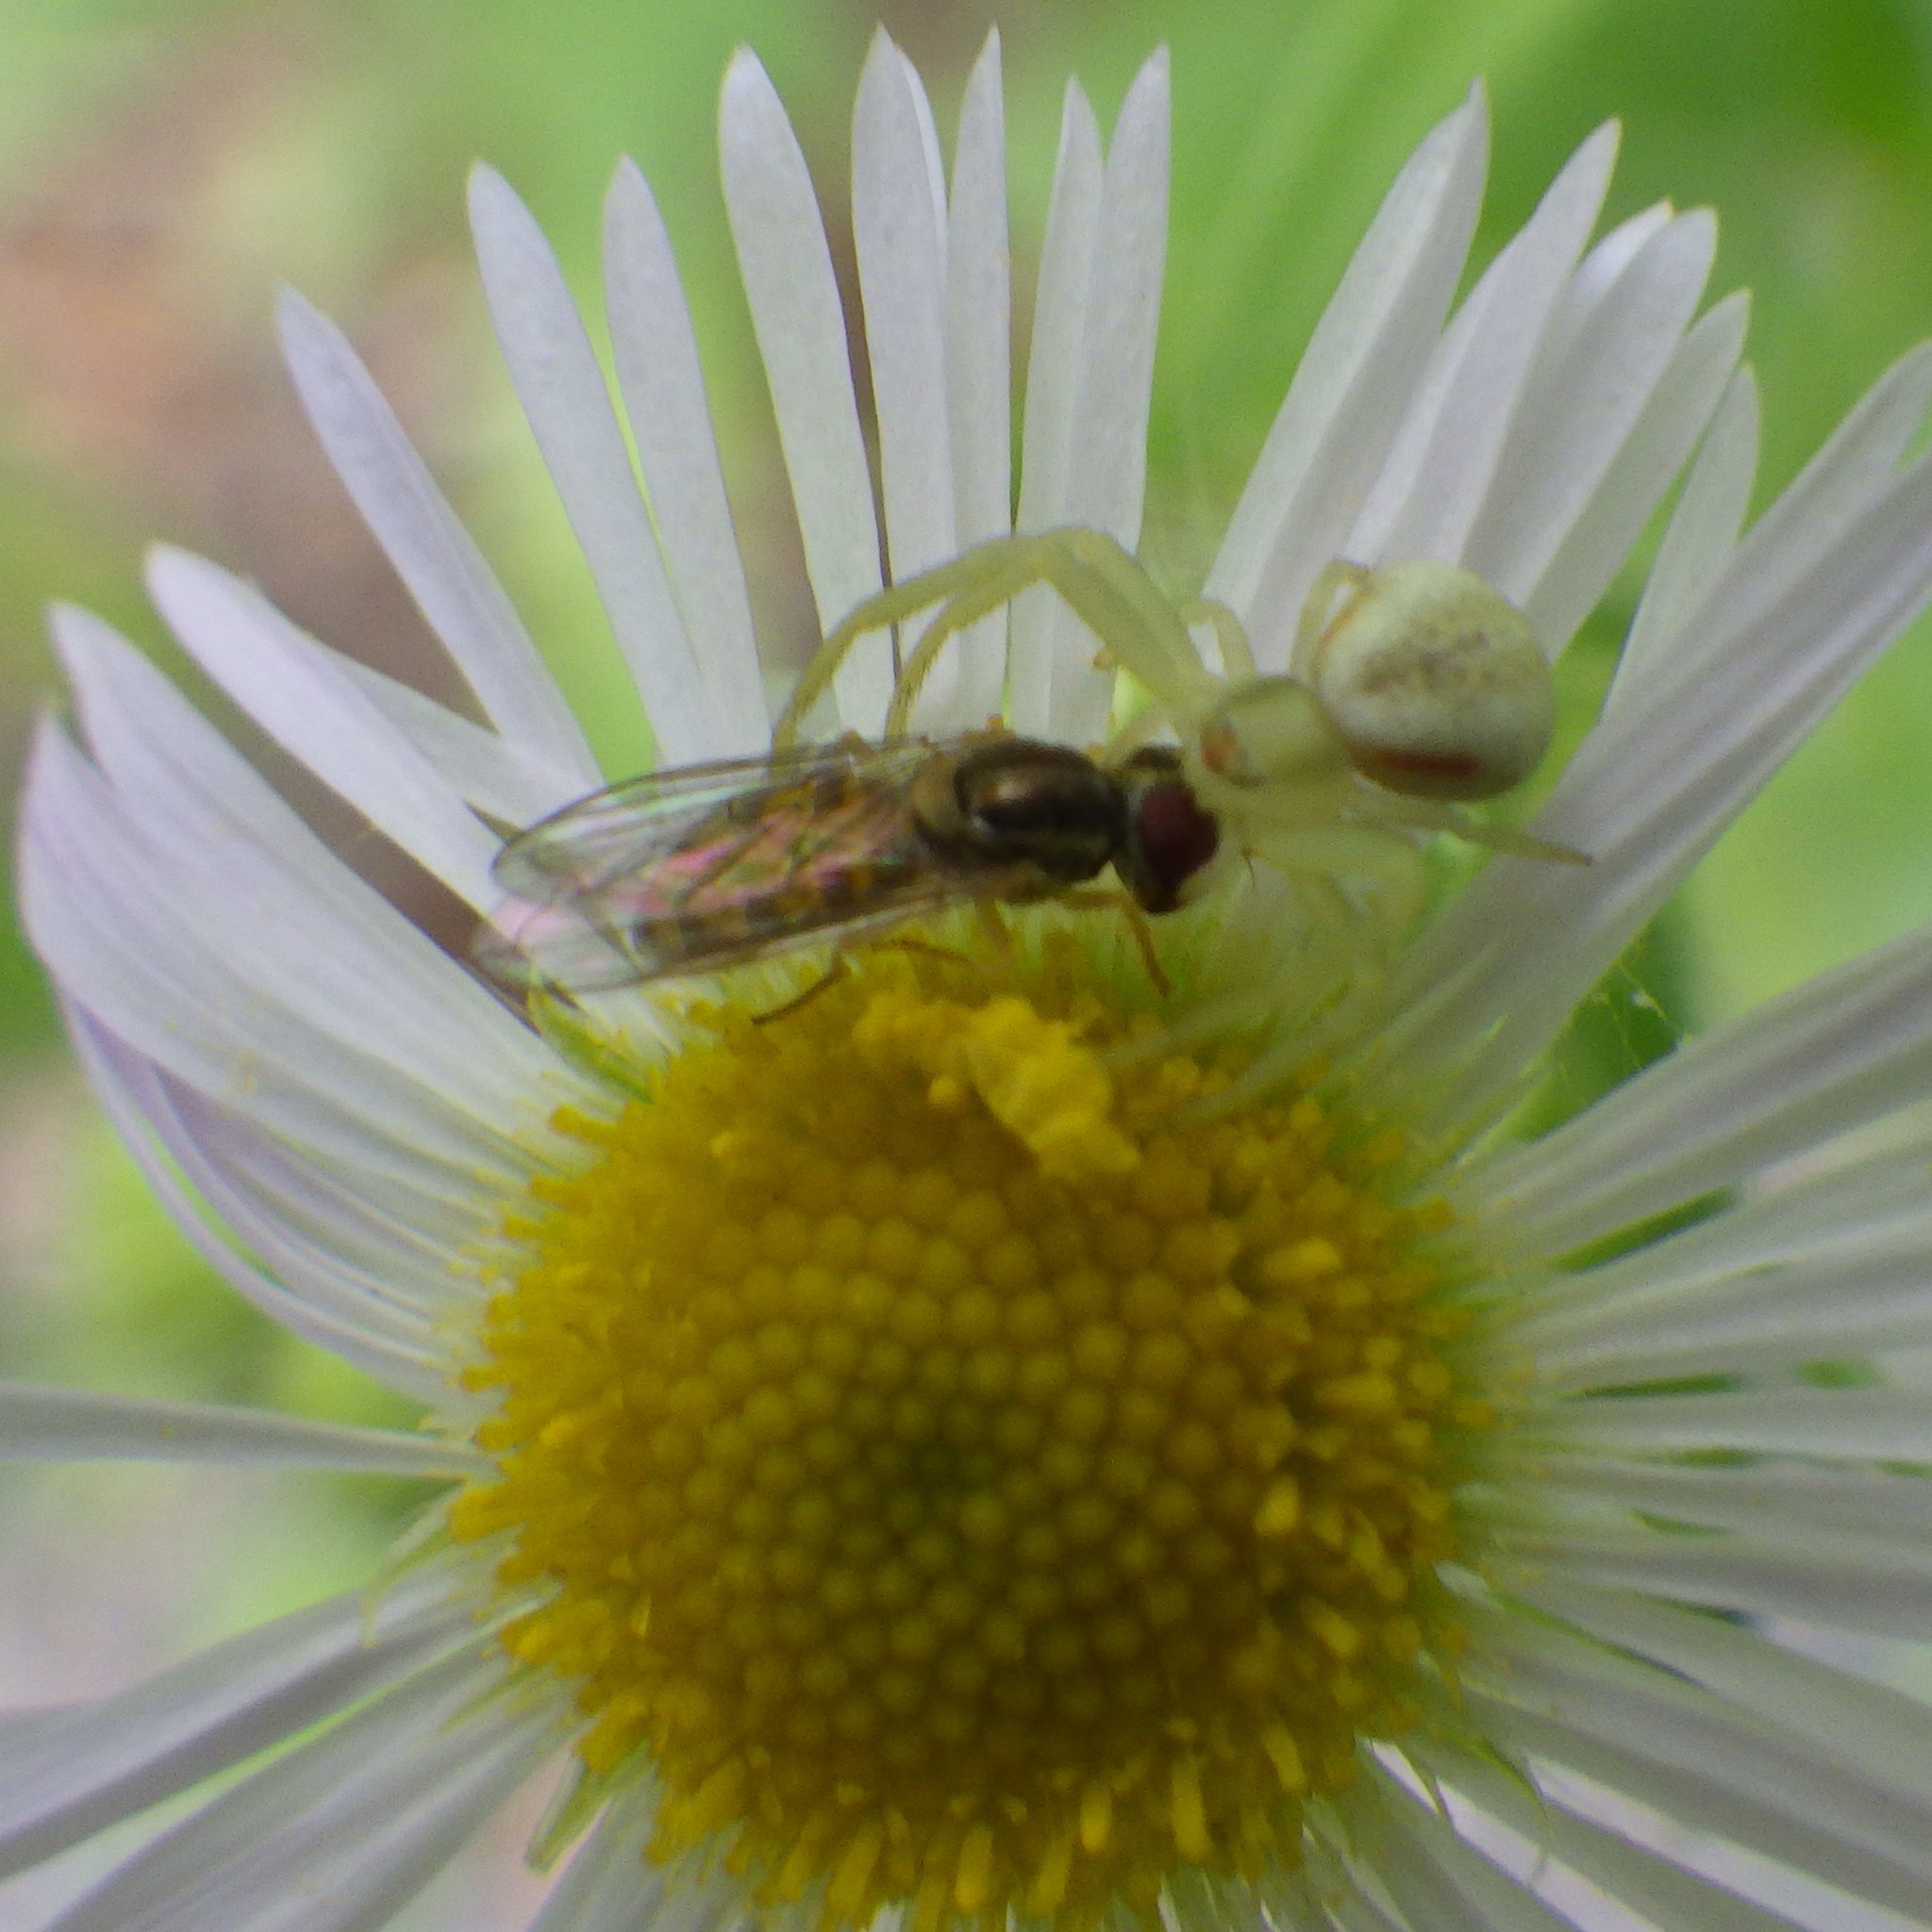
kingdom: Animalia
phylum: Arthropoda
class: Arachnida
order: Araneae
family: Thomisidae
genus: Misumena
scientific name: Misumena vatia
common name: Goldenrod crab spider
